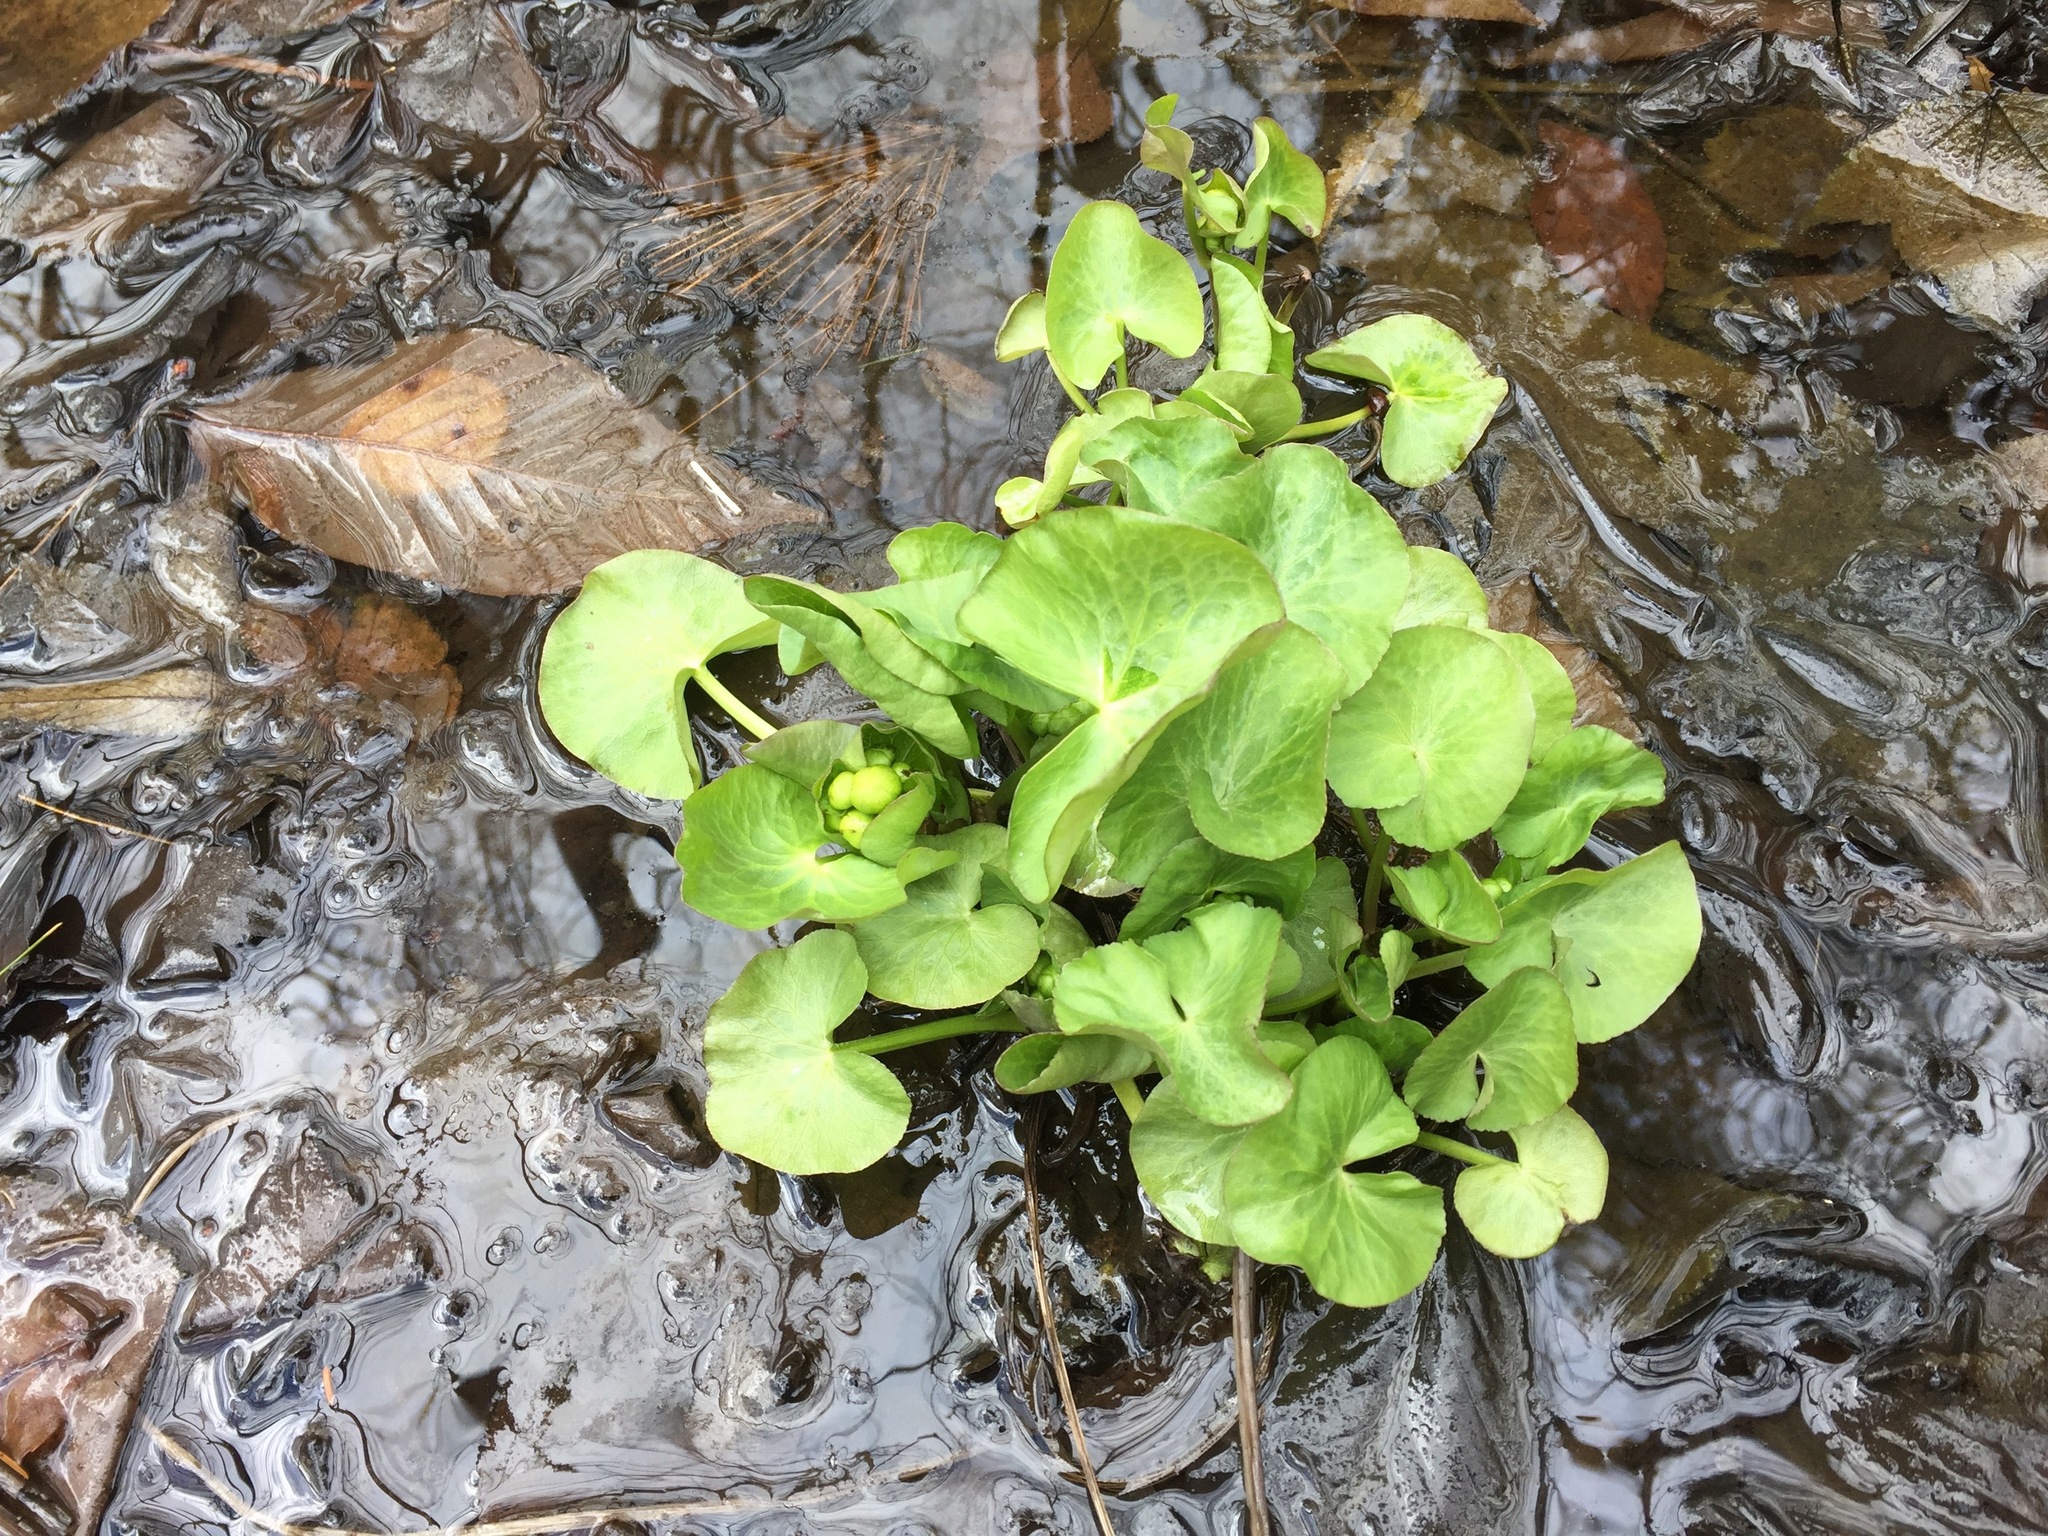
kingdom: Plantae
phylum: Tracheophyta
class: Magnoliopsida
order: Ranunculales
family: Ranunculaceae
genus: Caltha
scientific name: Caltha palustris
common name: Marsh marigold
